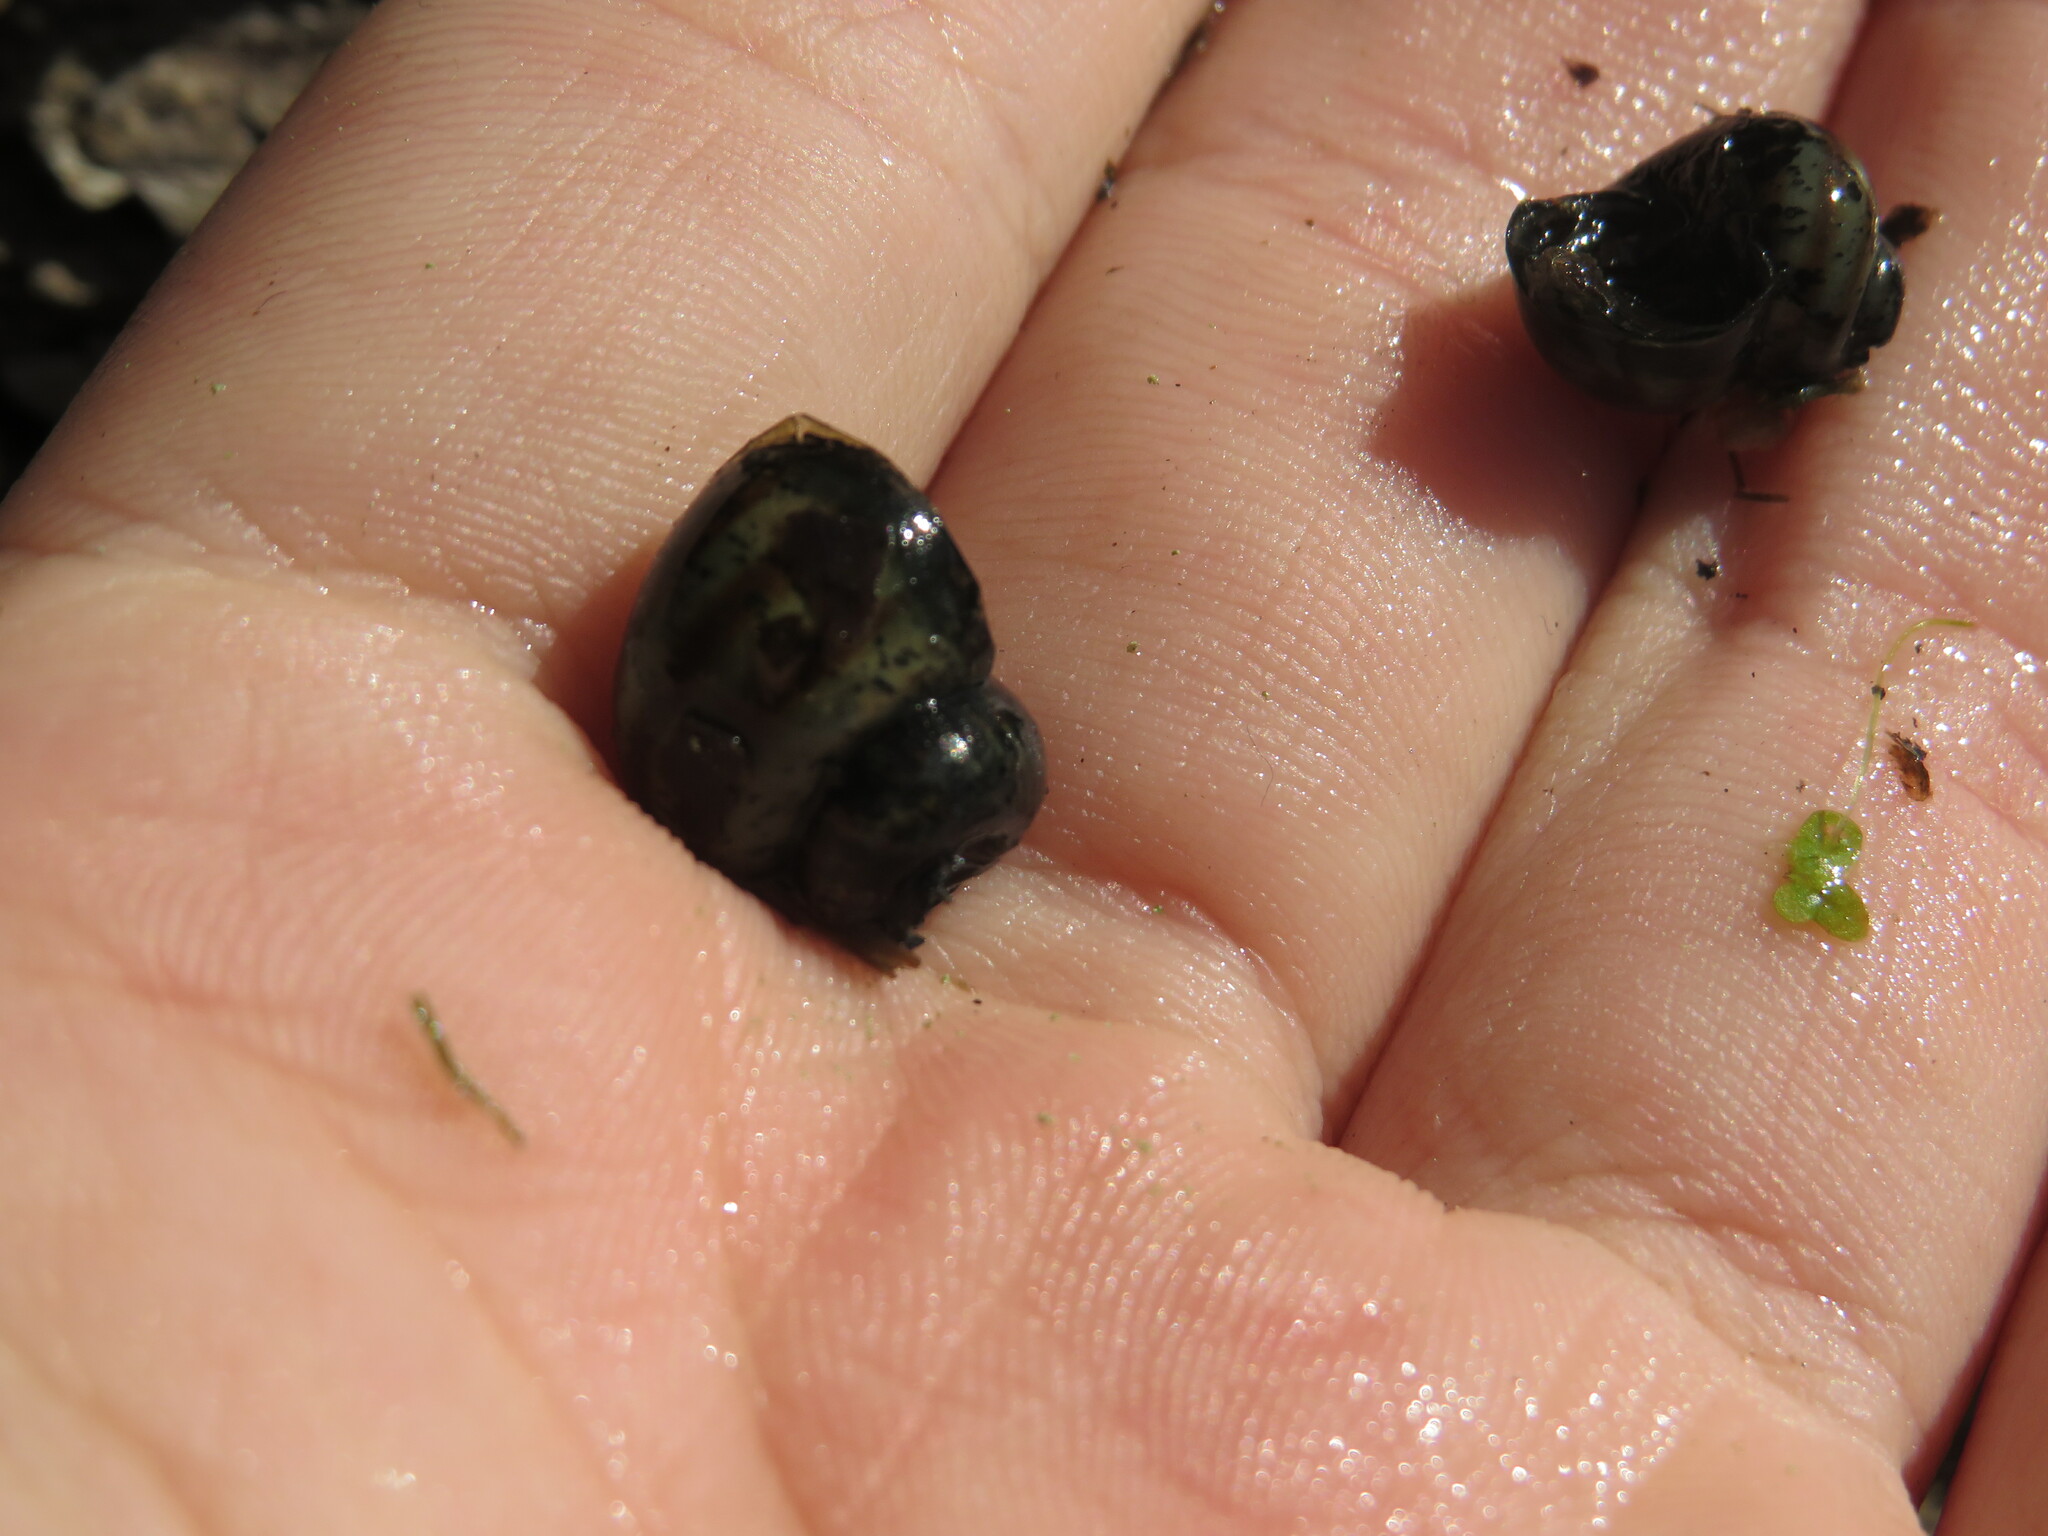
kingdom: Animalia
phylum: Mollusca
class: Gastropoda
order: Architaenioglossa
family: Viviparidae
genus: Callinina
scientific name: Callinina georgiana
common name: Banded mystery snail
